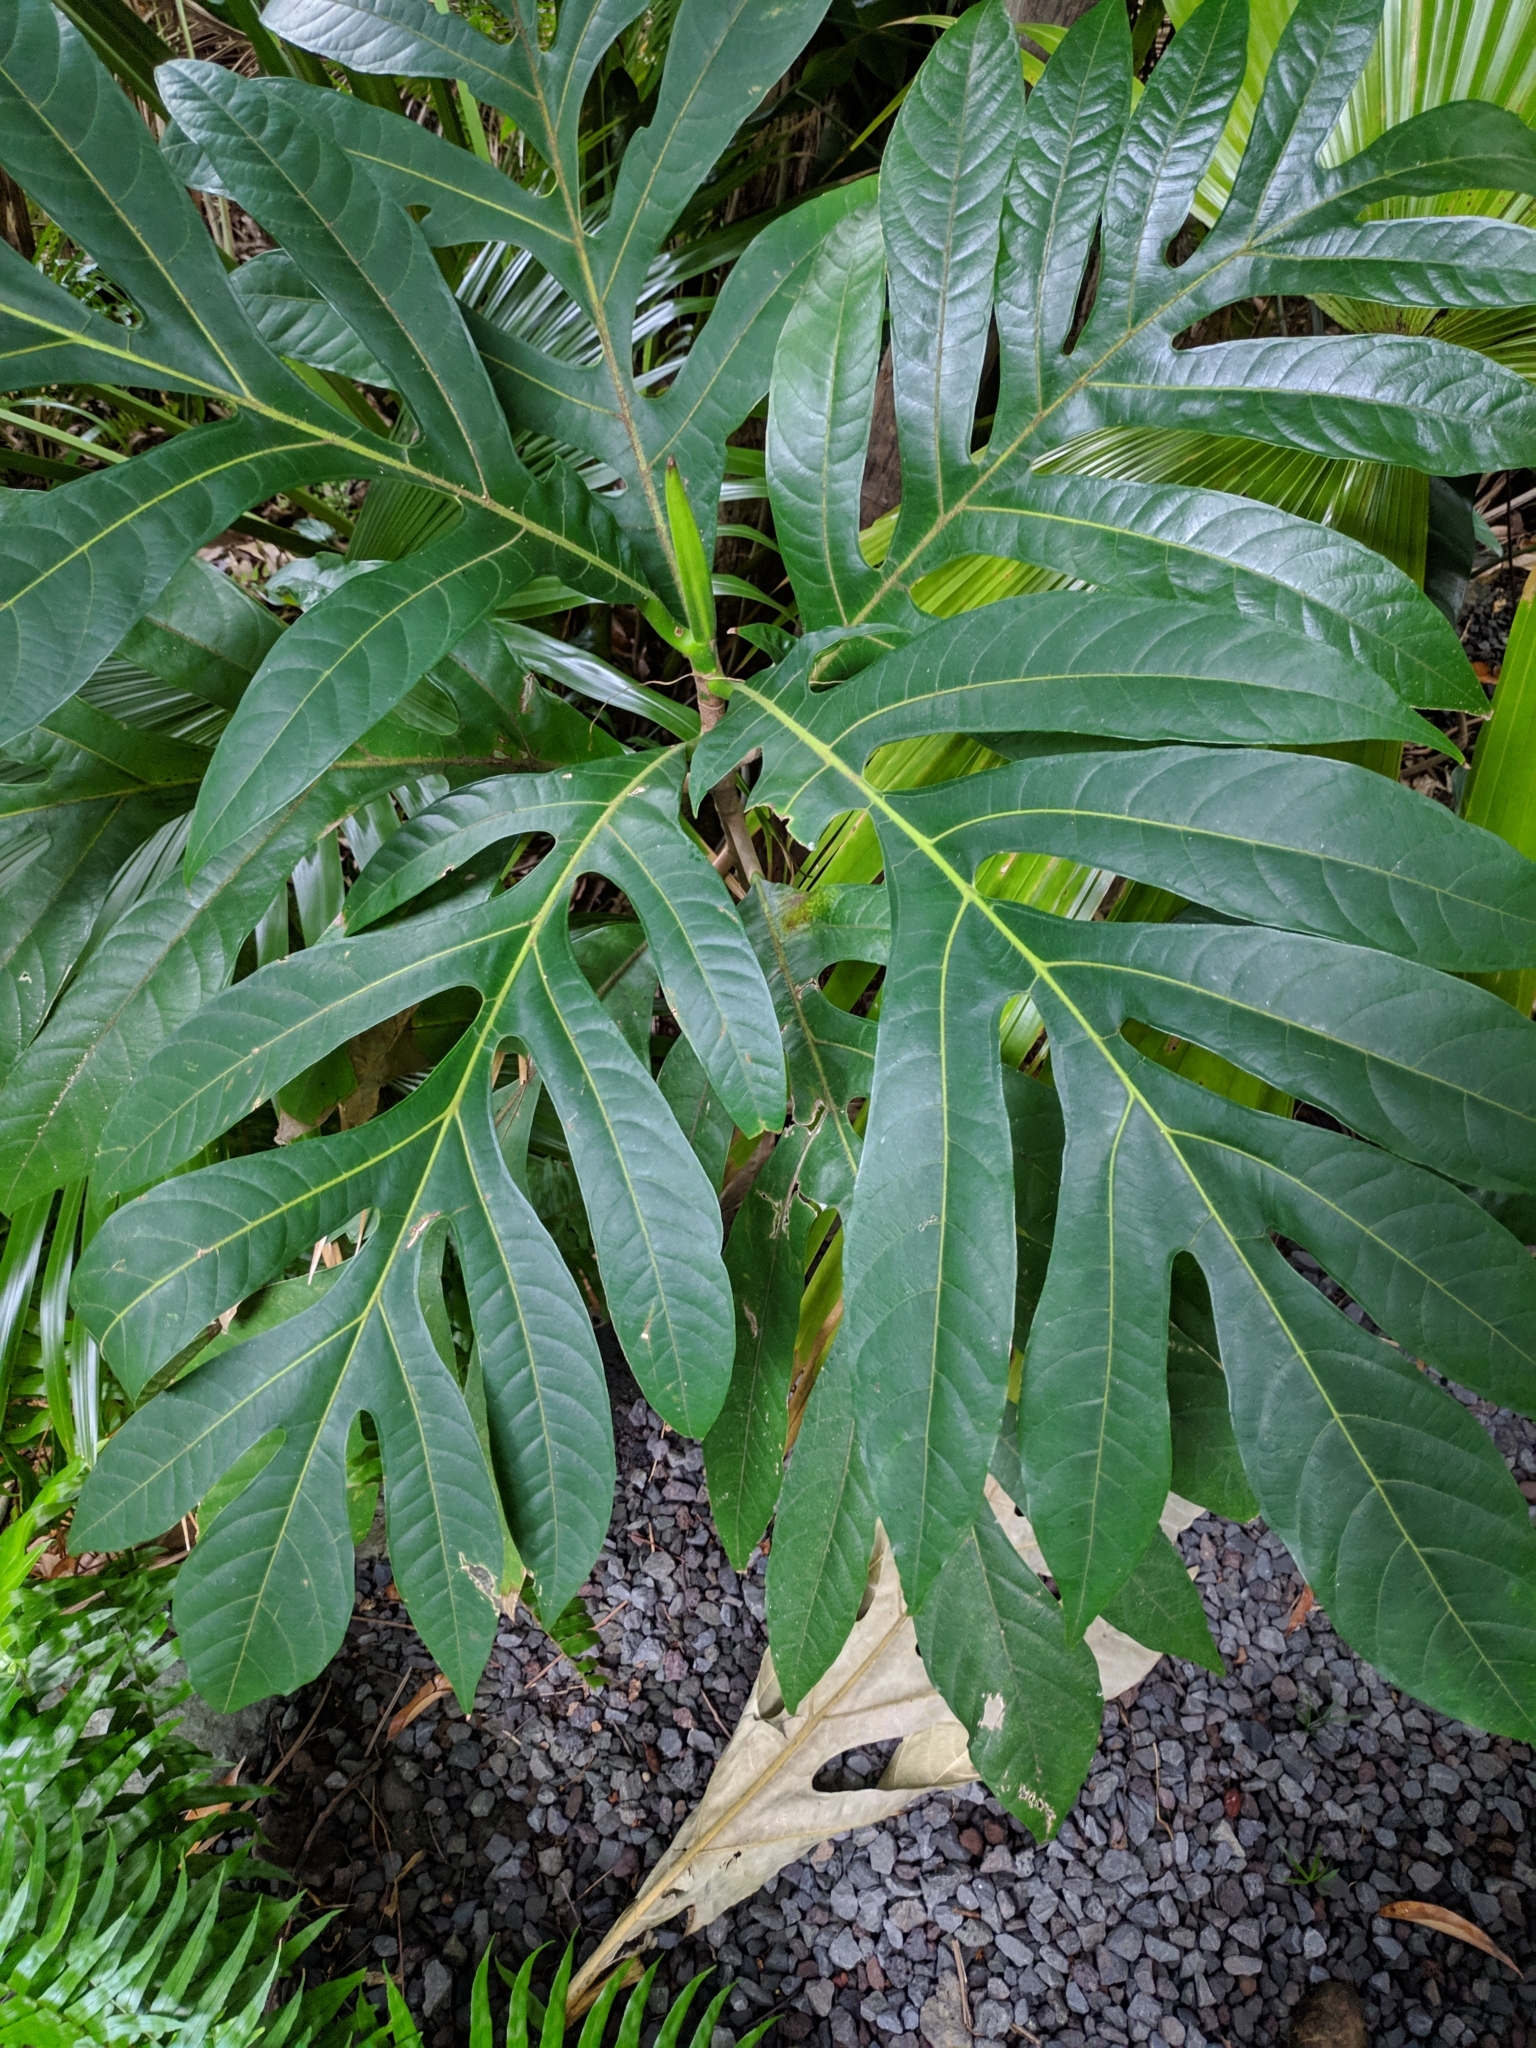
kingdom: Plantae
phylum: Tracheophyta
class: Magnoliopsida
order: Rosales
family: Moraceae
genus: Artocarpus
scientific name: Artocarpus altilis
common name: Breadfruit
